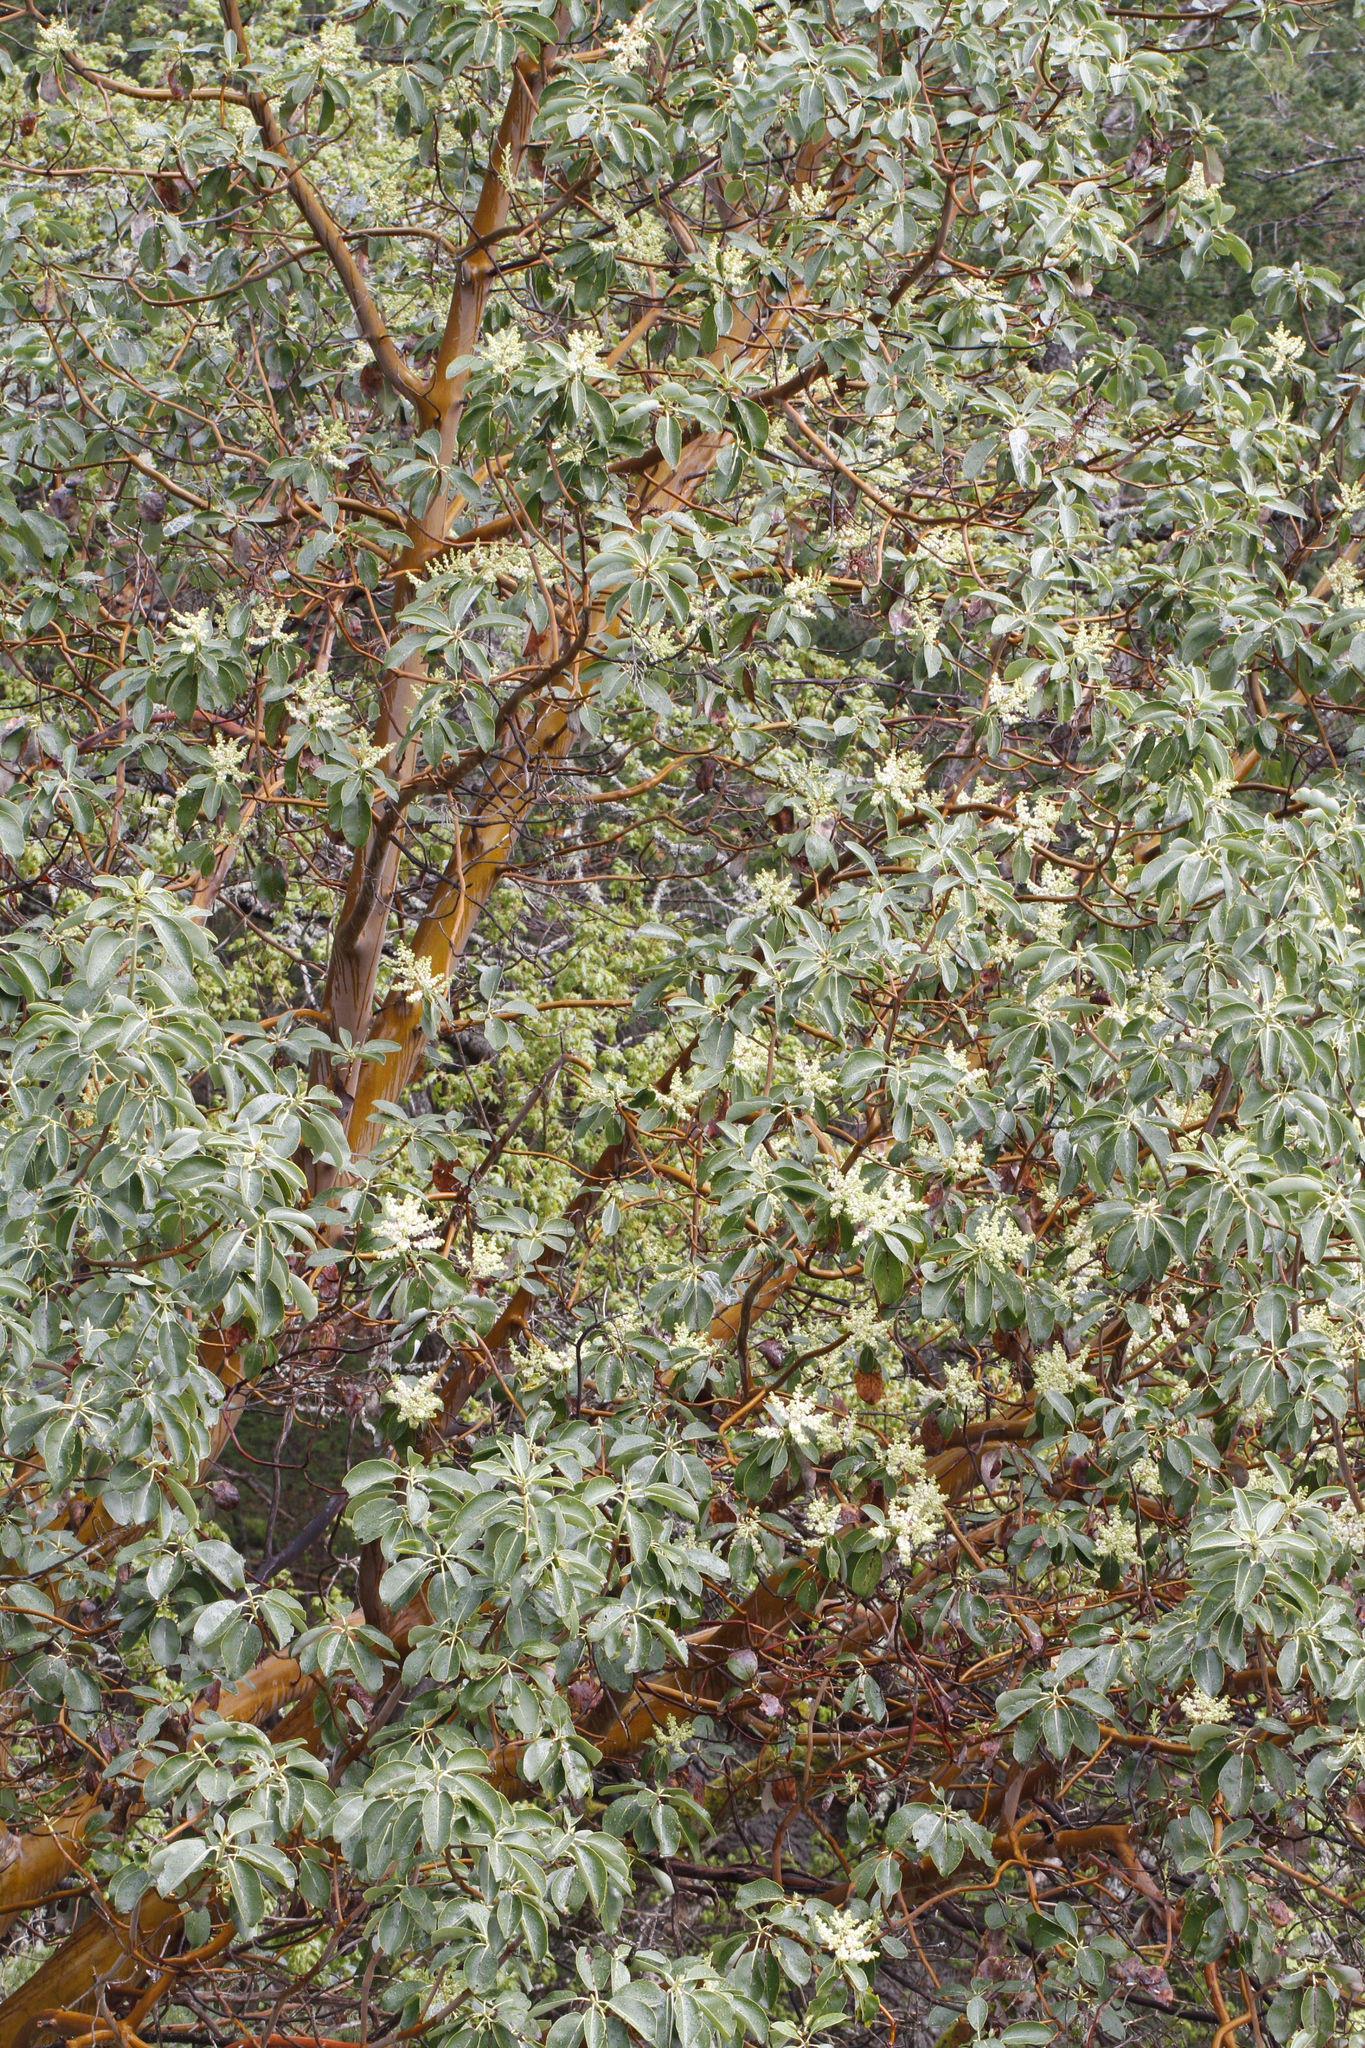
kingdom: Plantae
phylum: Tracheophyta
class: Magnoliopsida
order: Ericales
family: Ericaceae
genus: Arbutus
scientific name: Arbutus menziesii
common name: Pacific madrone
